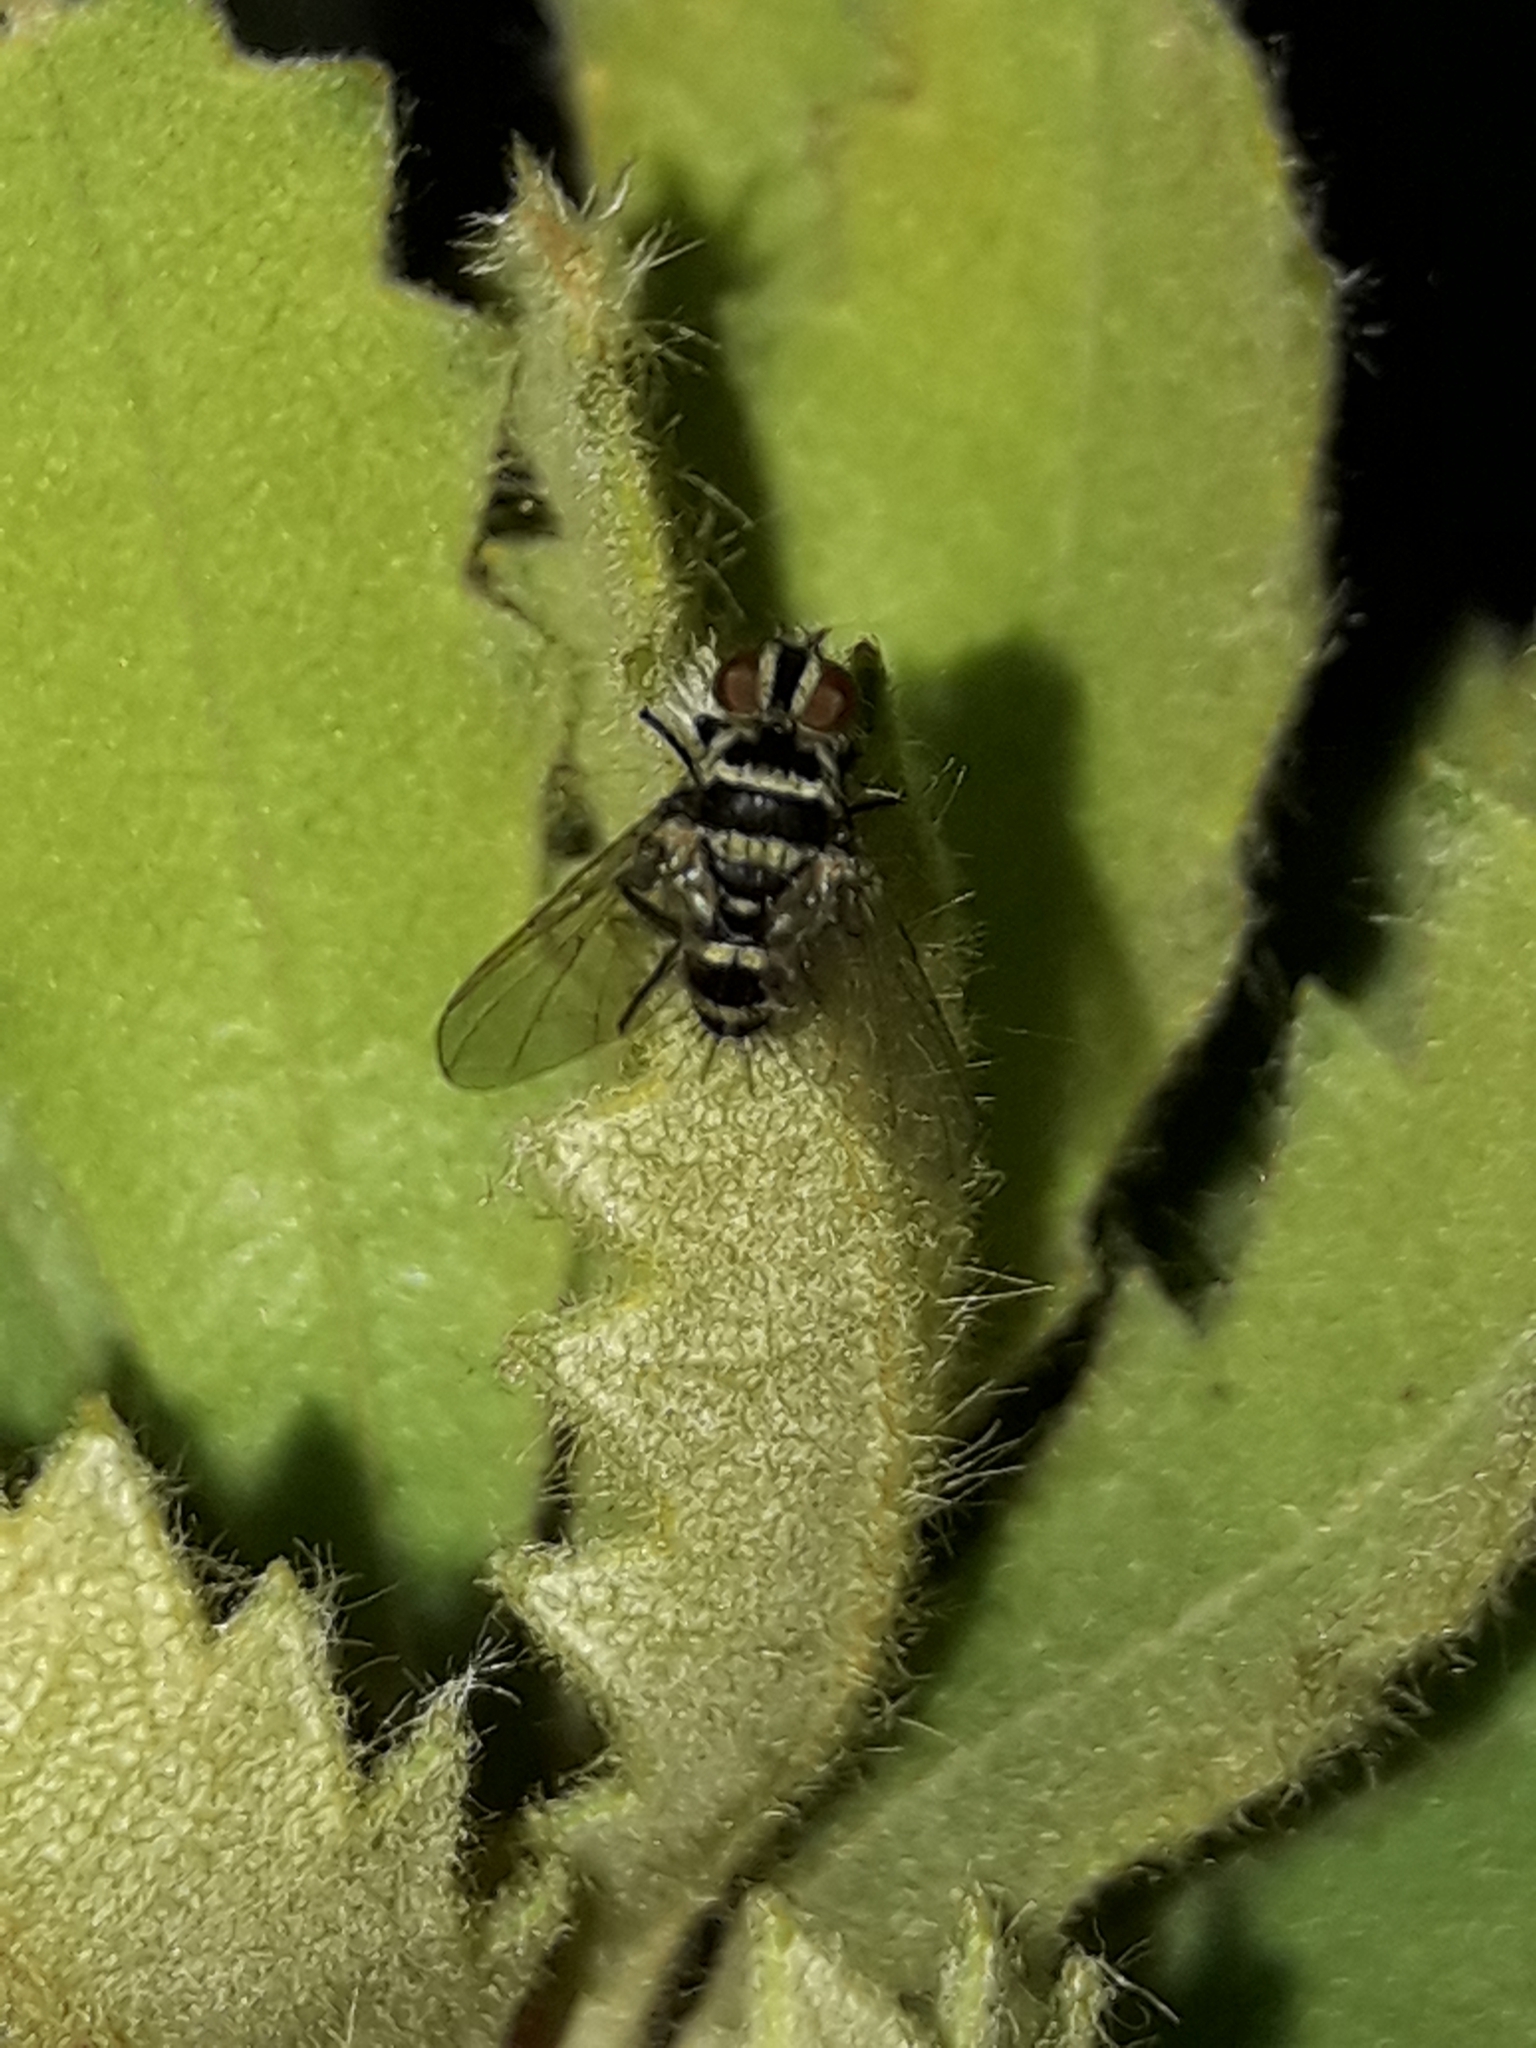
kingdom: Animalia
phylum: Arthropoda
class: Insecta
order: Diptera
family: Tachinidae
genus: Trigonospila
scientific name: Trigonospila brevifacies
